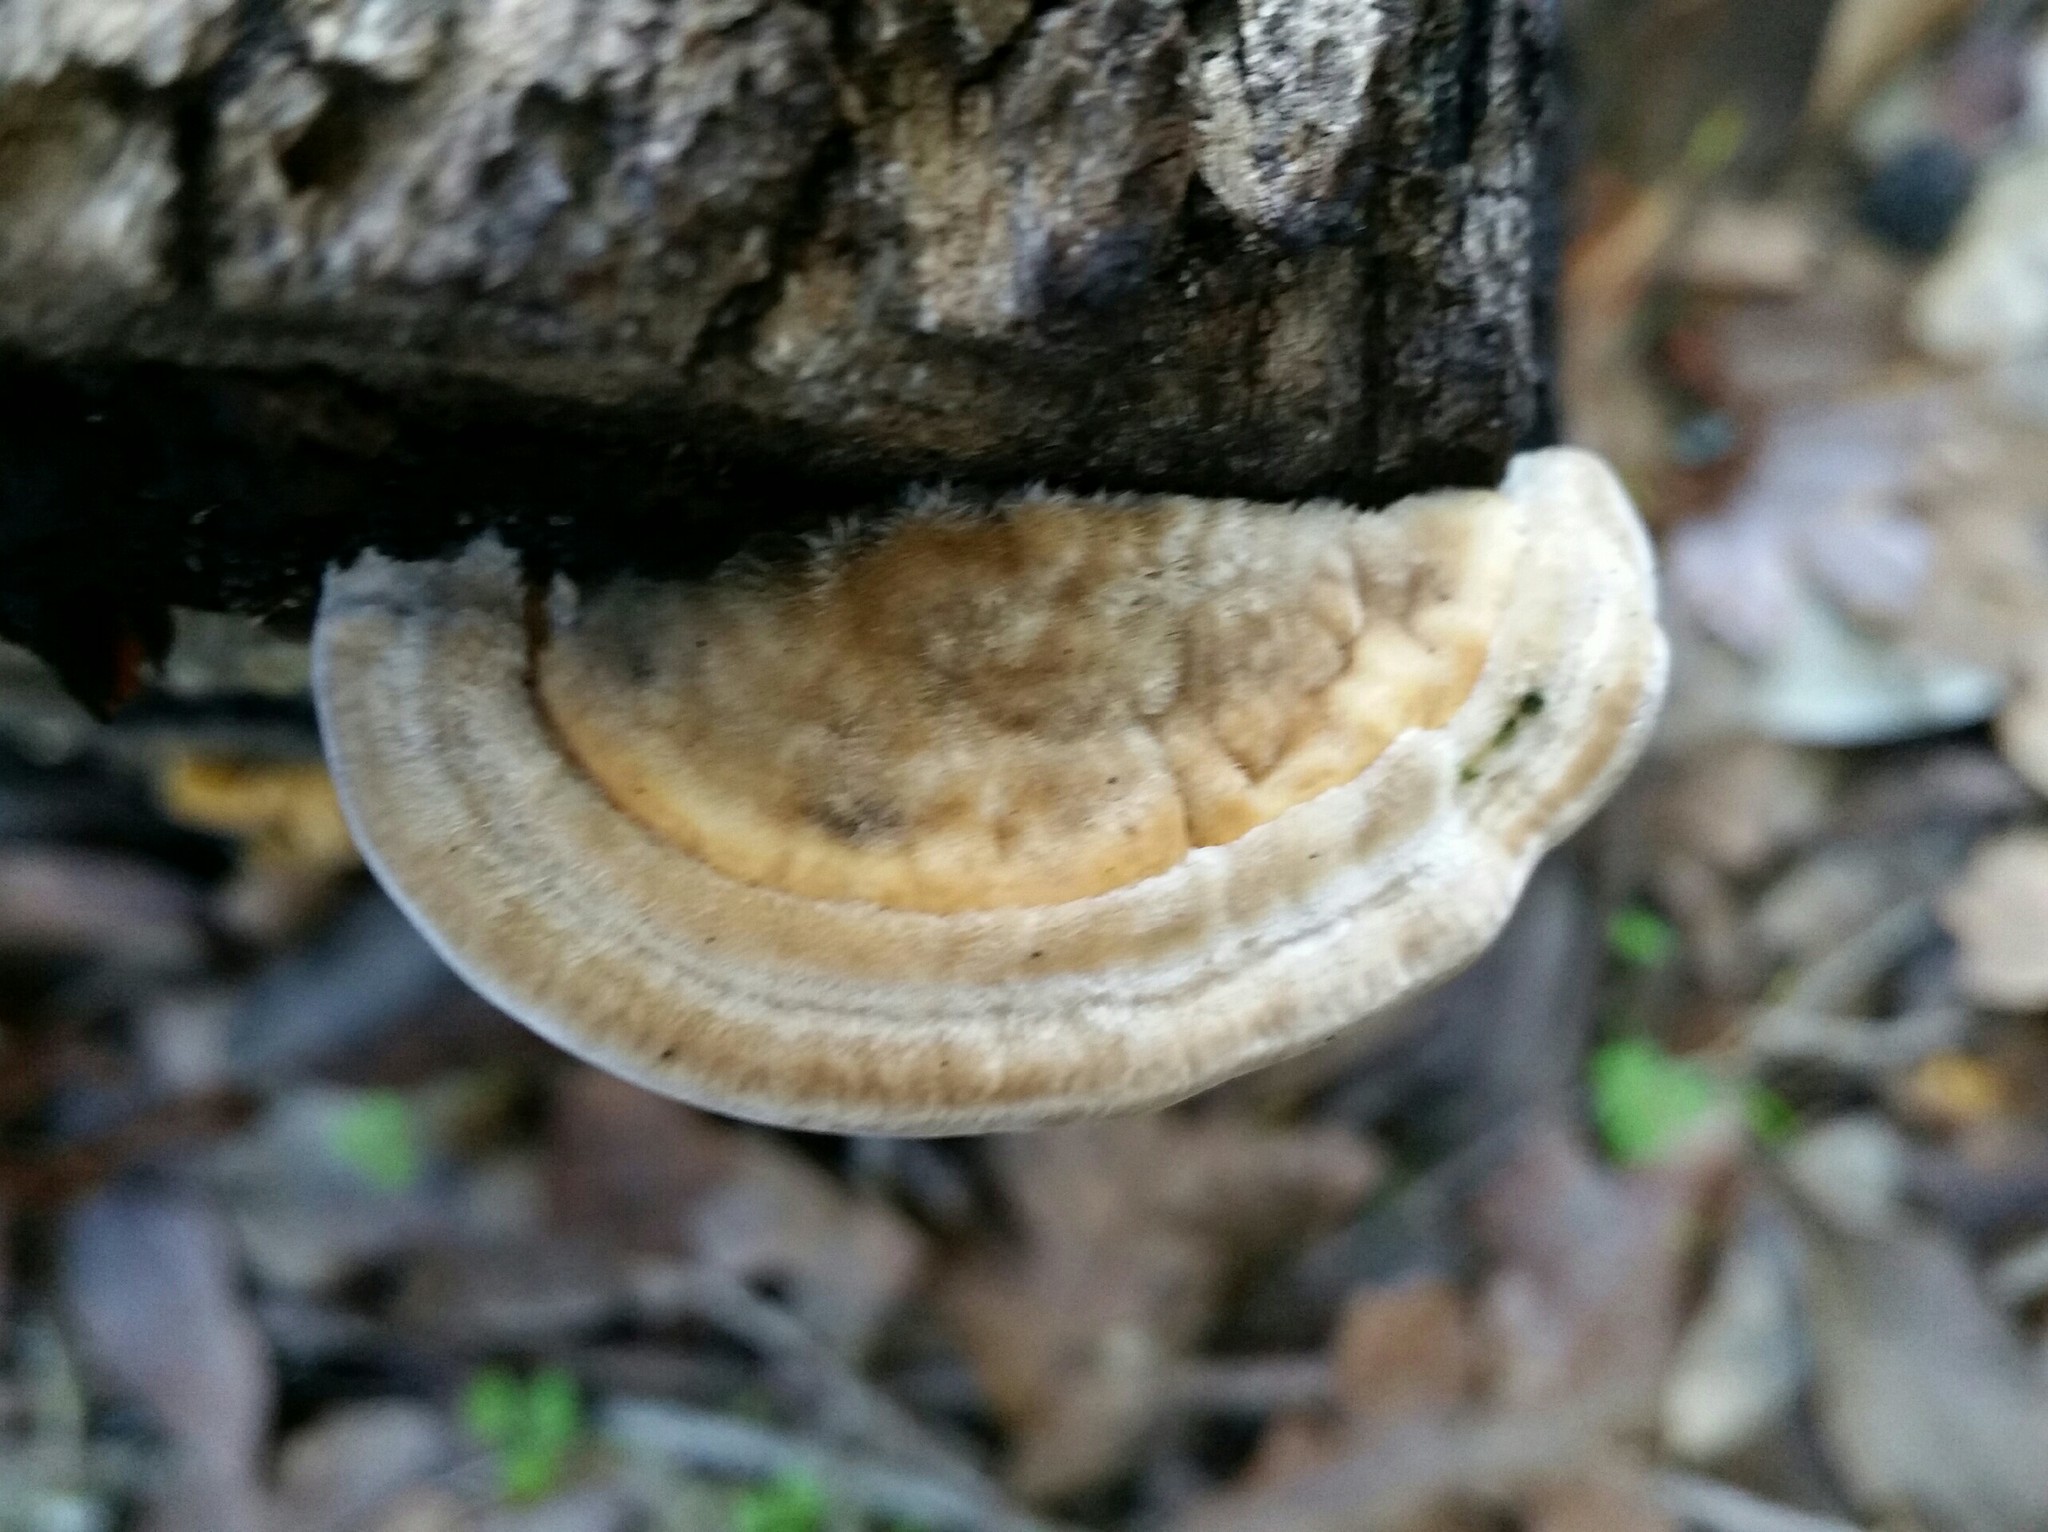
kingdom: Fungi
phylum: Basidiomycota
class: Agaricomycetes
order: Polyporales
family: Polyporaceae
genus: Lenzites
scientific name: Lenzites betulinus
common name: Birch mazegill
